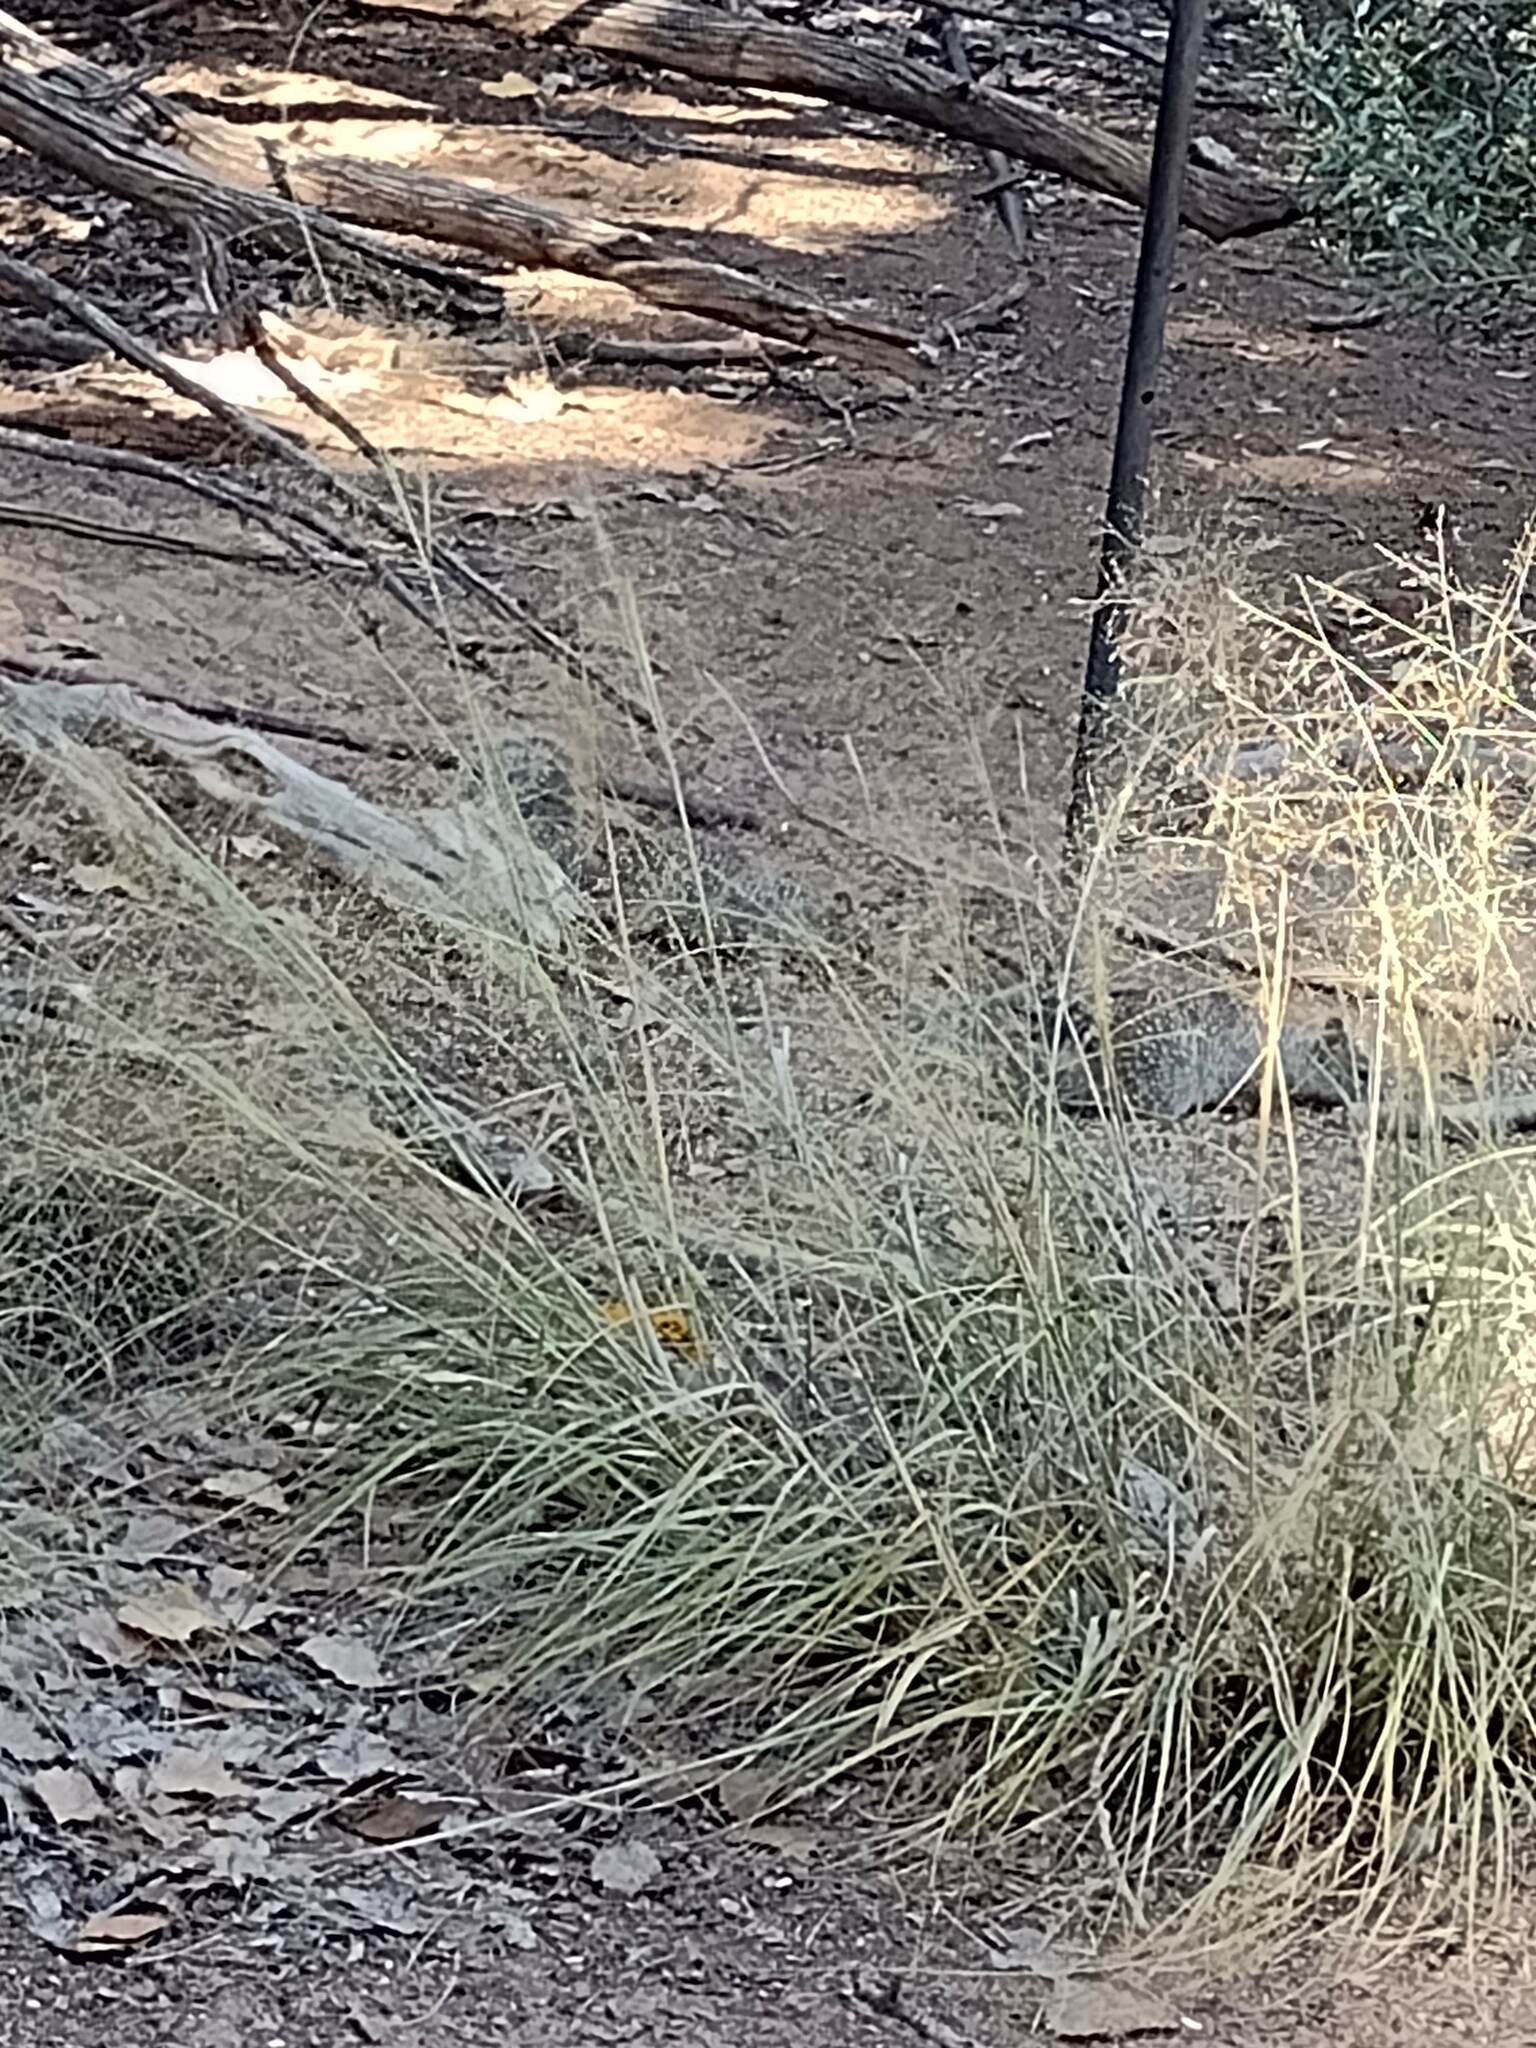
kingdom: Animalia
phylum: Chordata
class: Mammalia
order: Rodentia
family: Sciuridae
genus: Otospermophilus
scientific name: Otospermophilus variegatus
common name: Rock squirrel
